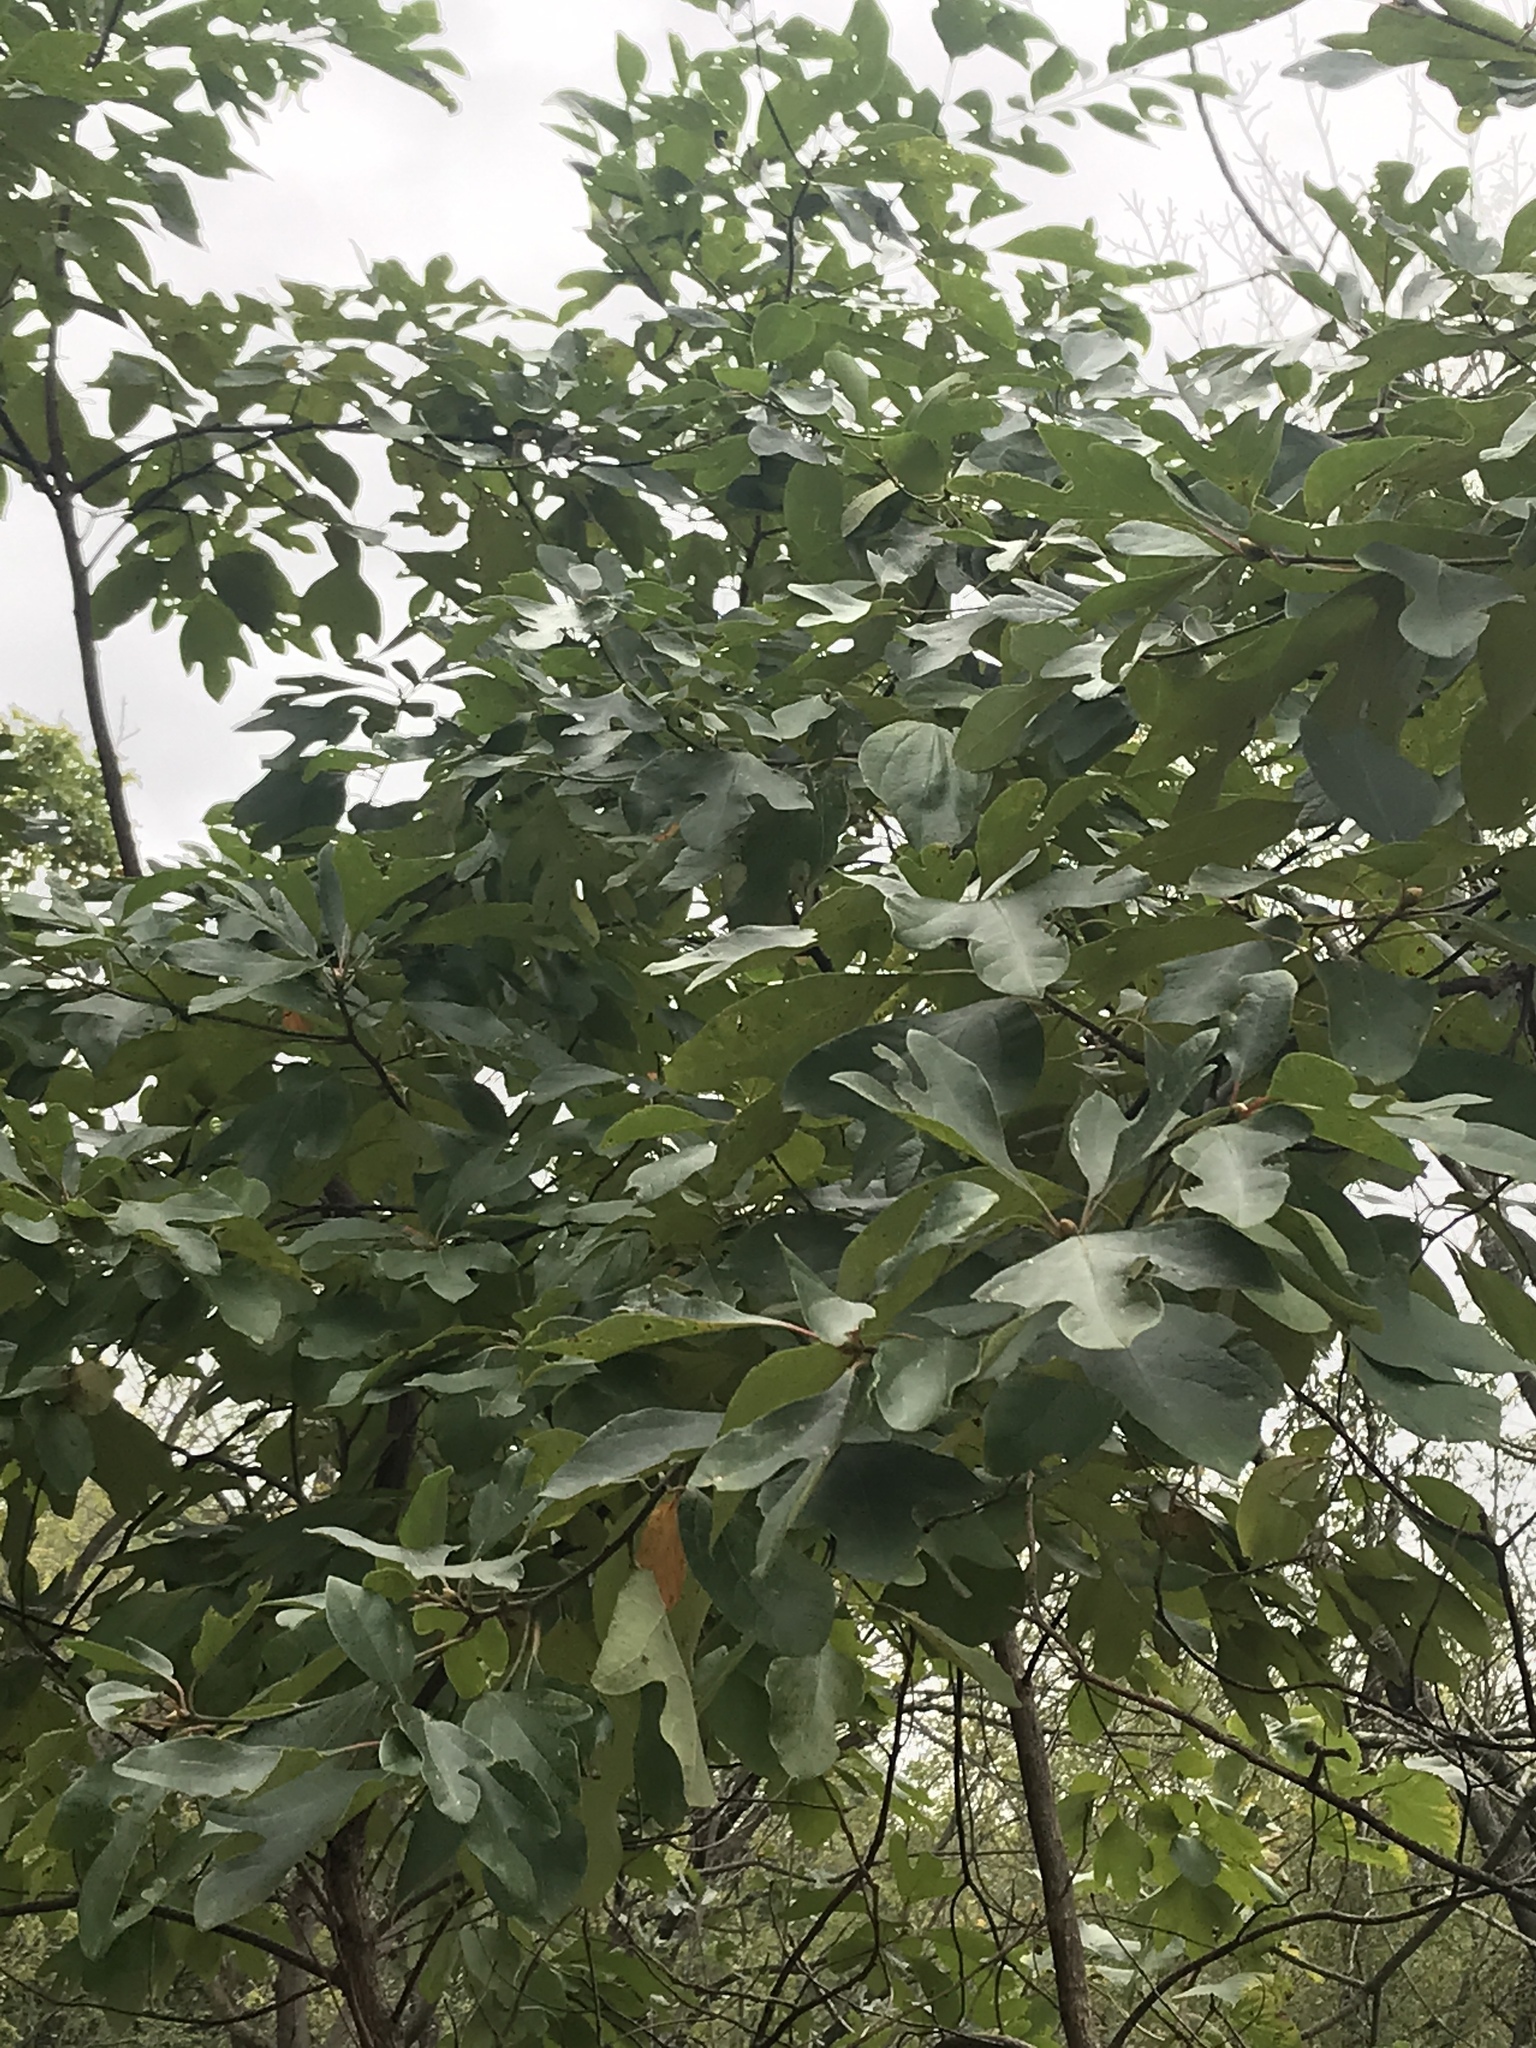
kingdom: Plantae
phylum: Tracheophyta
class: Magnoliopsida
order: Laurales
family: Lauraceae
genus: Sassafras
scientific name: Sassafras albidum
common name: Sassafras
